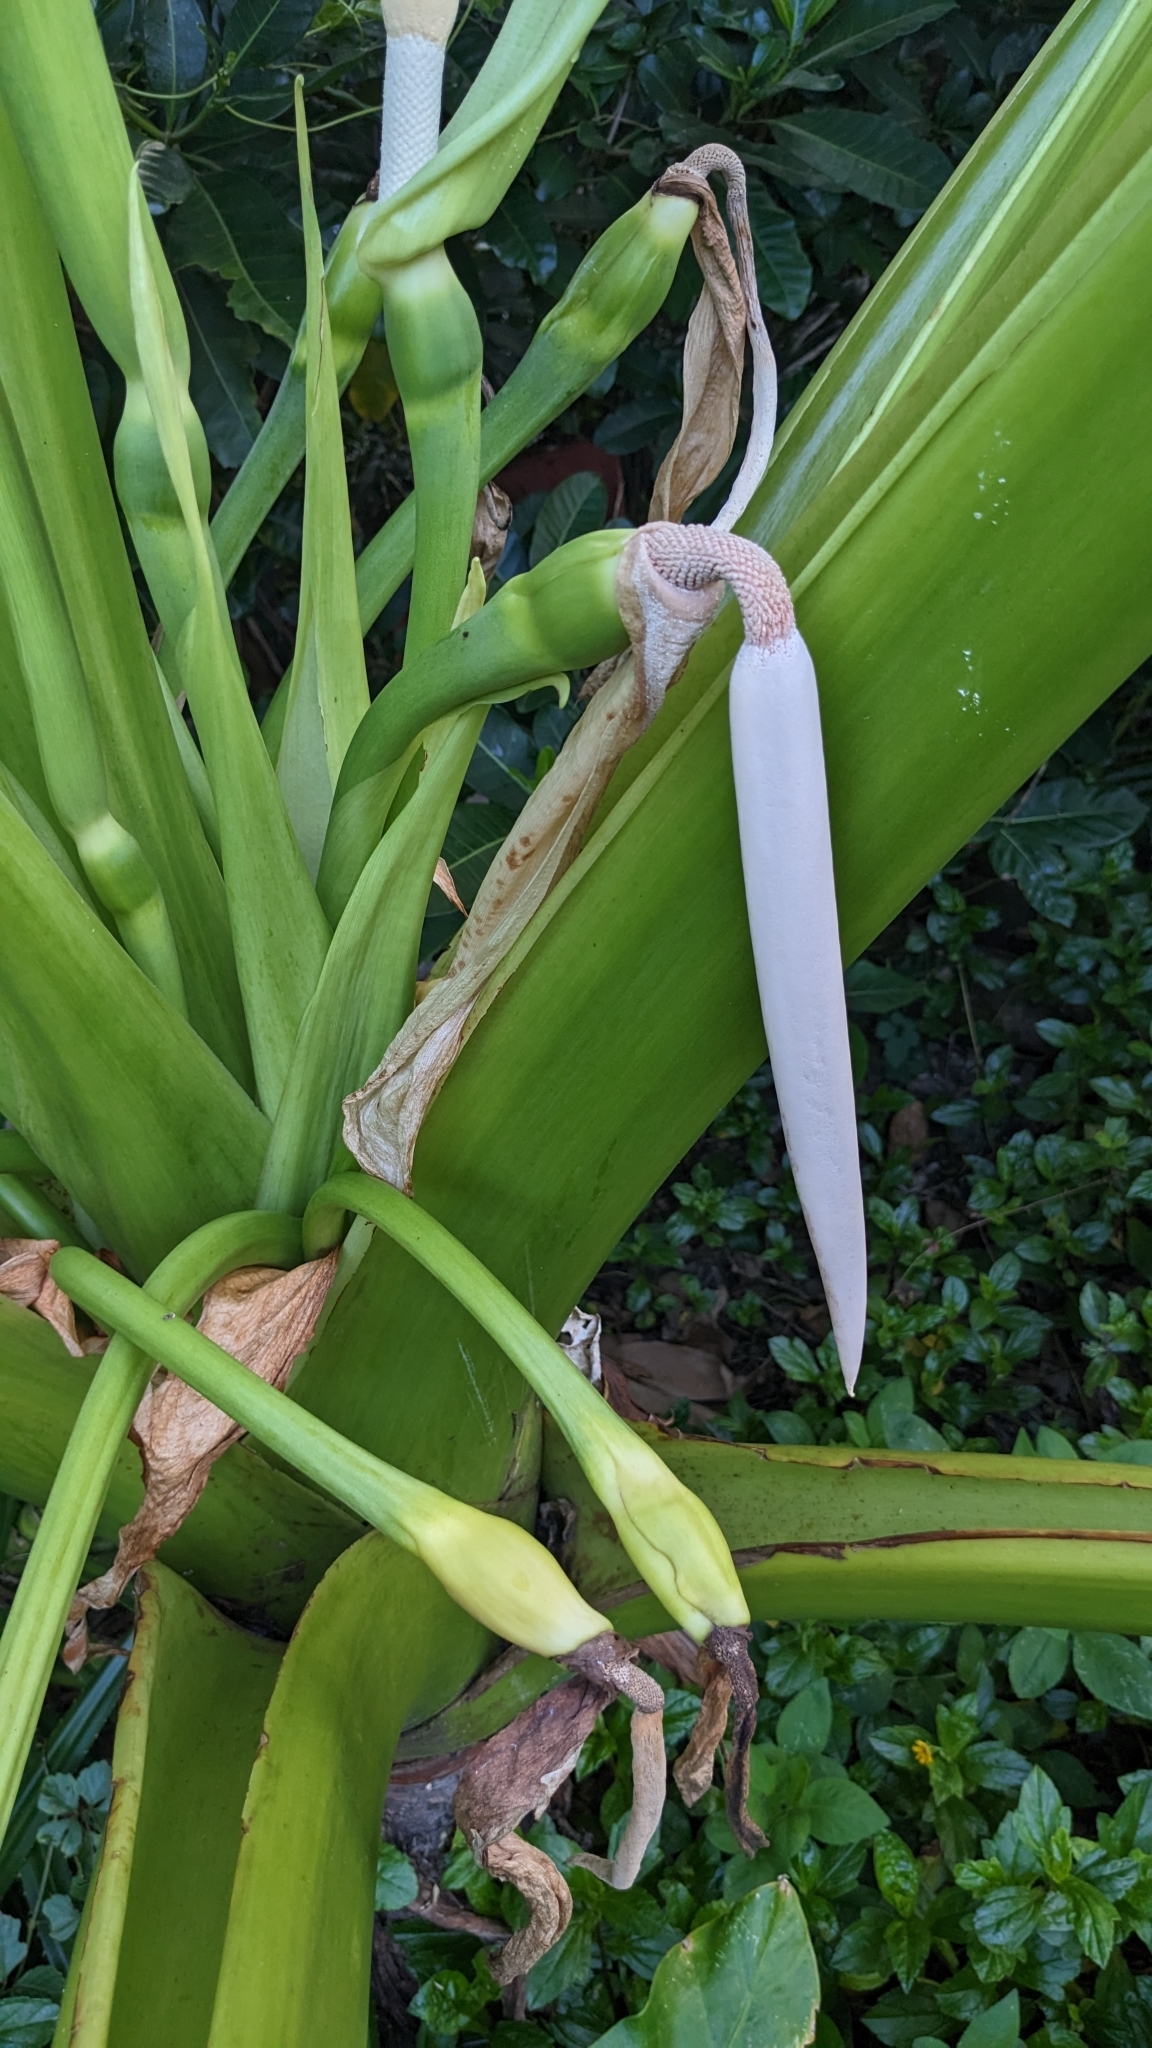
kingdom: Plantae
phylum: Tracheophyta
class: Liliopsida
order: Alismatales
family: Araceae
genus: Alocasia
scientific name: Alocasia macrorrhizos
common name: Giant taro
